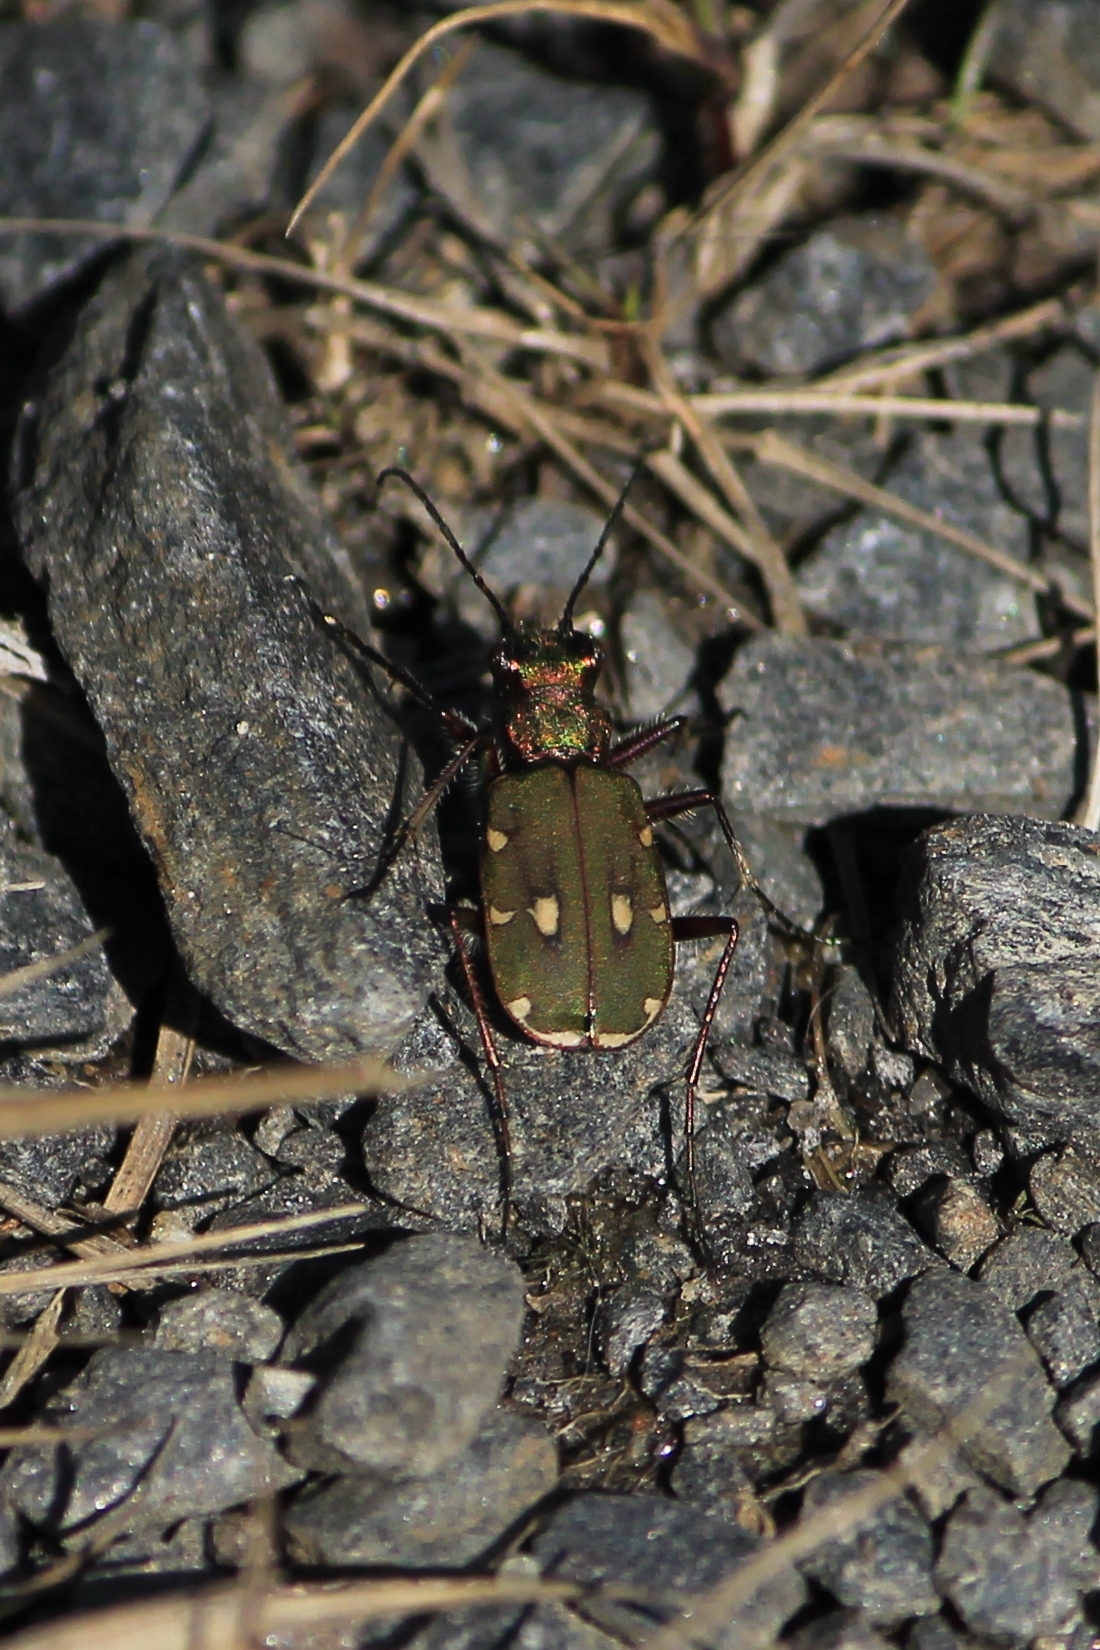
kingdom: Animalia
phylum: Arthropoda
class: Insecta
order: Coleoptera
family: Carabidae
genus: Cicindela
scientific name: Cicindela campestris
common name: Common tiger beetle
